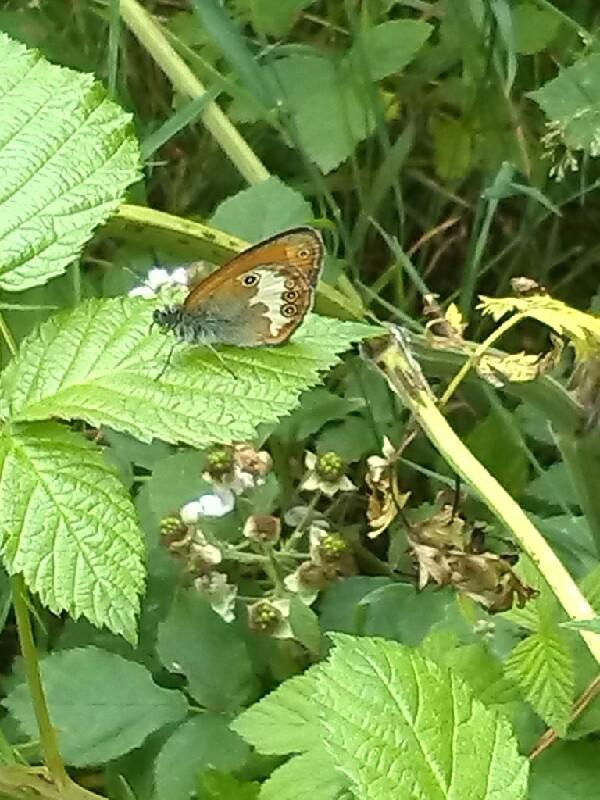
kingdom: Animalia
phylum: Arthropoda
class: Insecta
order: Lepidoptera
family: Nymphalidae
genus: Coenonympha
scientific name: Coenonympha arcania
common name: Pearly heath
